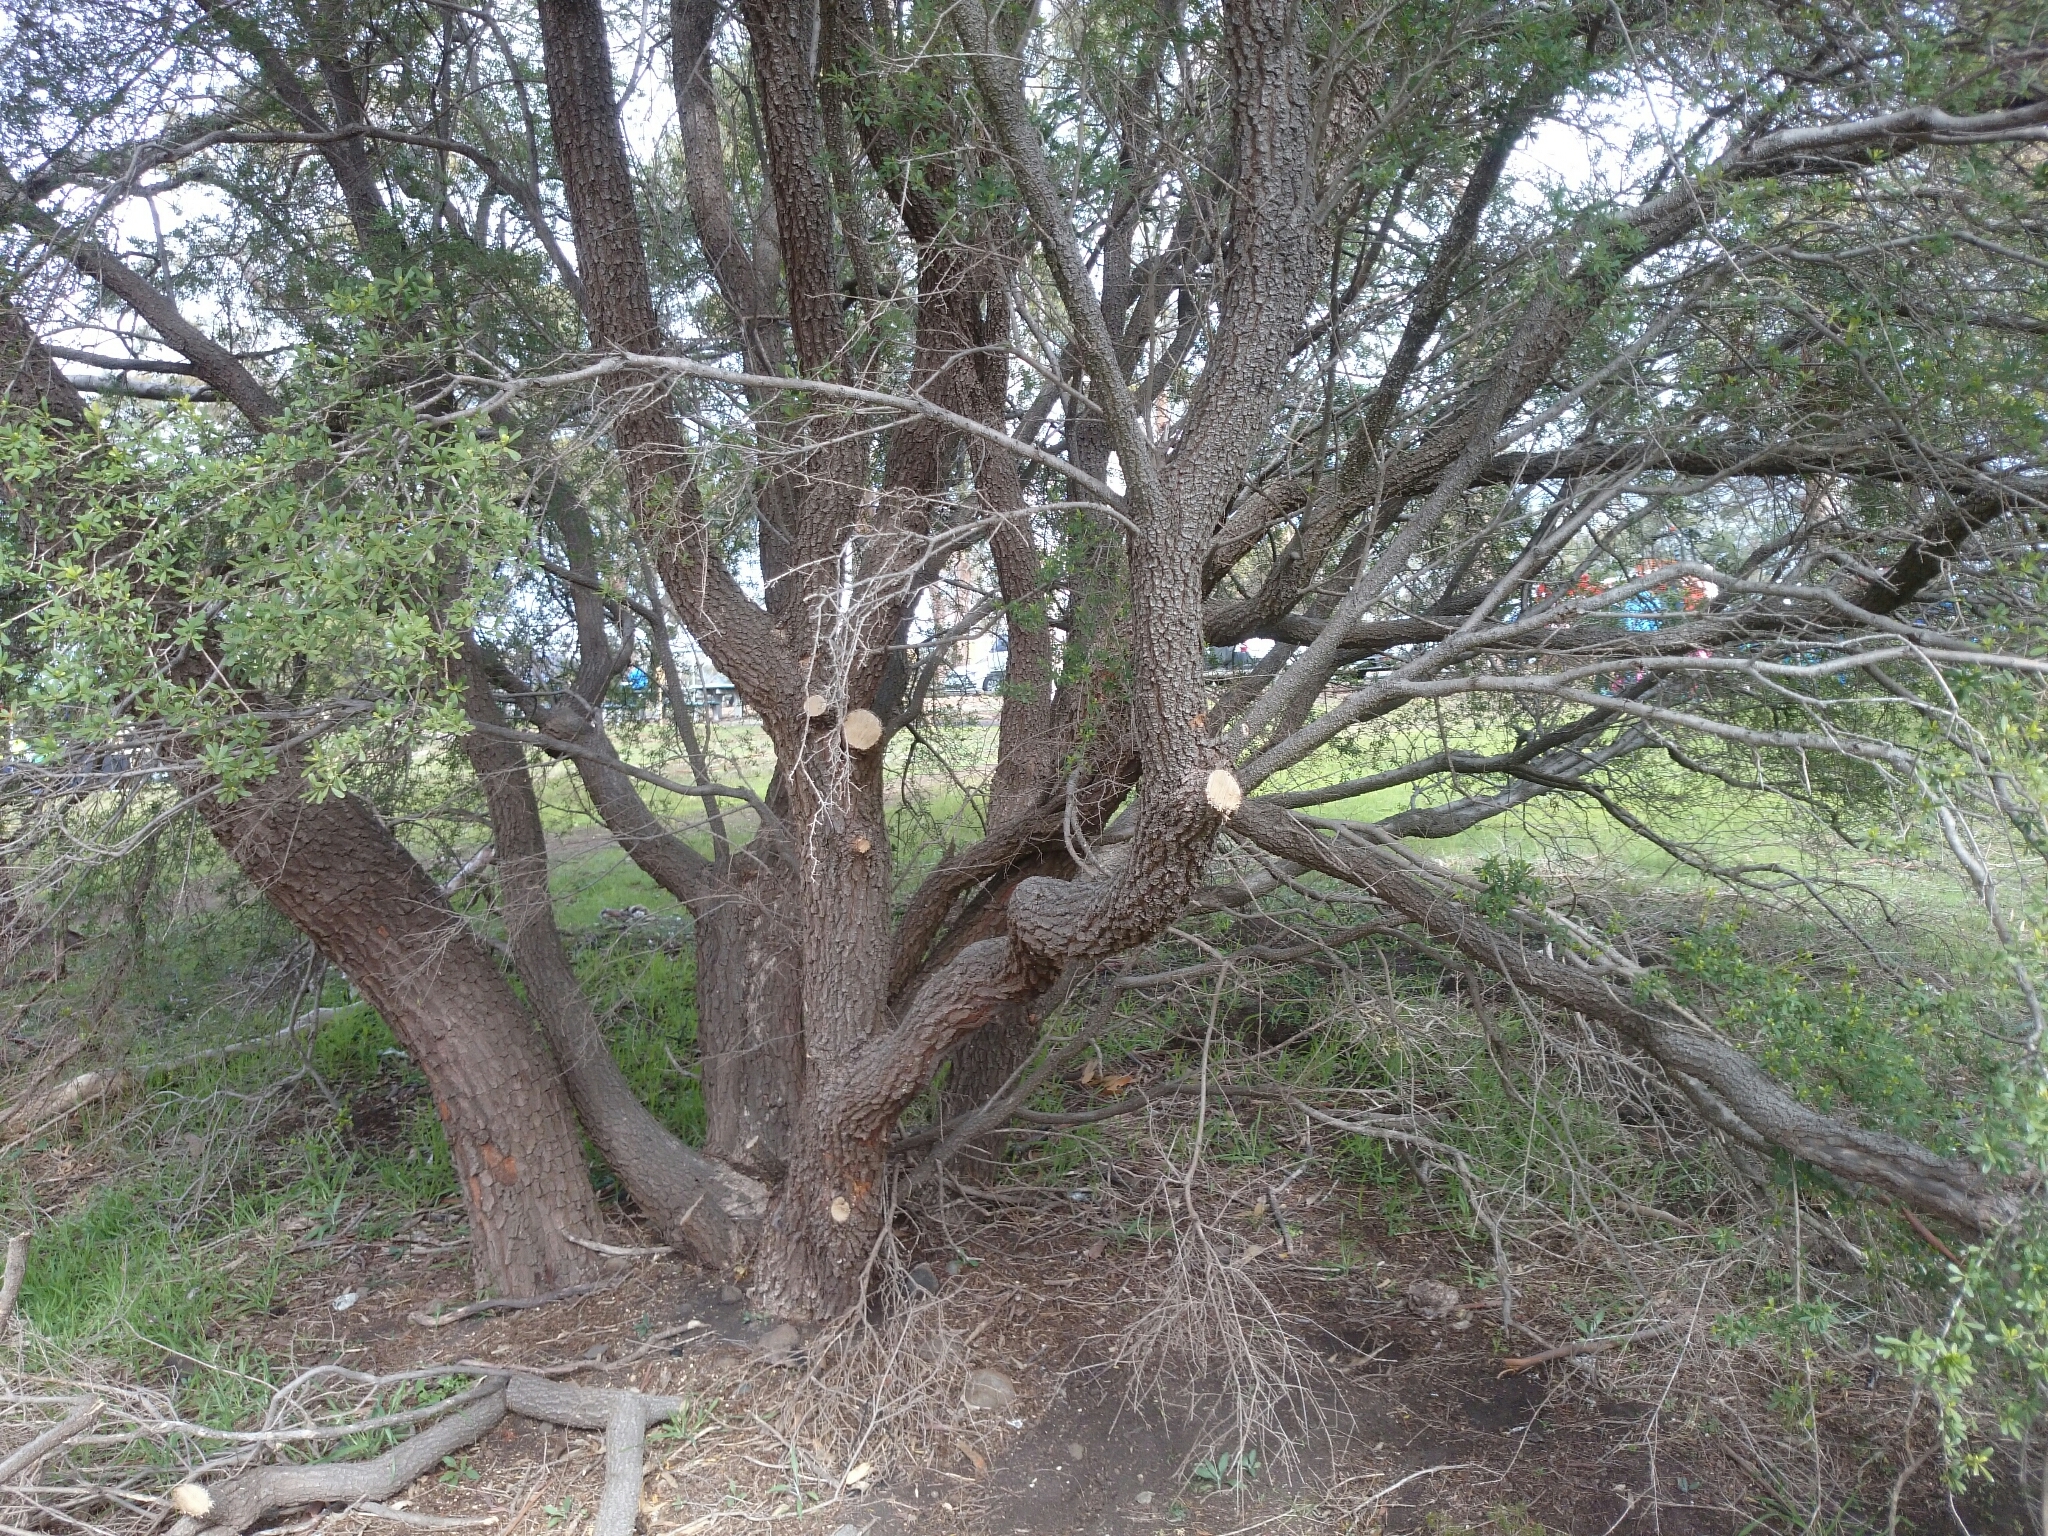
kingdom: Plantae
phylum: Tracheophyta
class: Magnoliopsida
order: Apiales
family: Pittosporaceae
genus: Bursaria
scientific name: Bursaria spinosa
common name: Australian blackthorn
